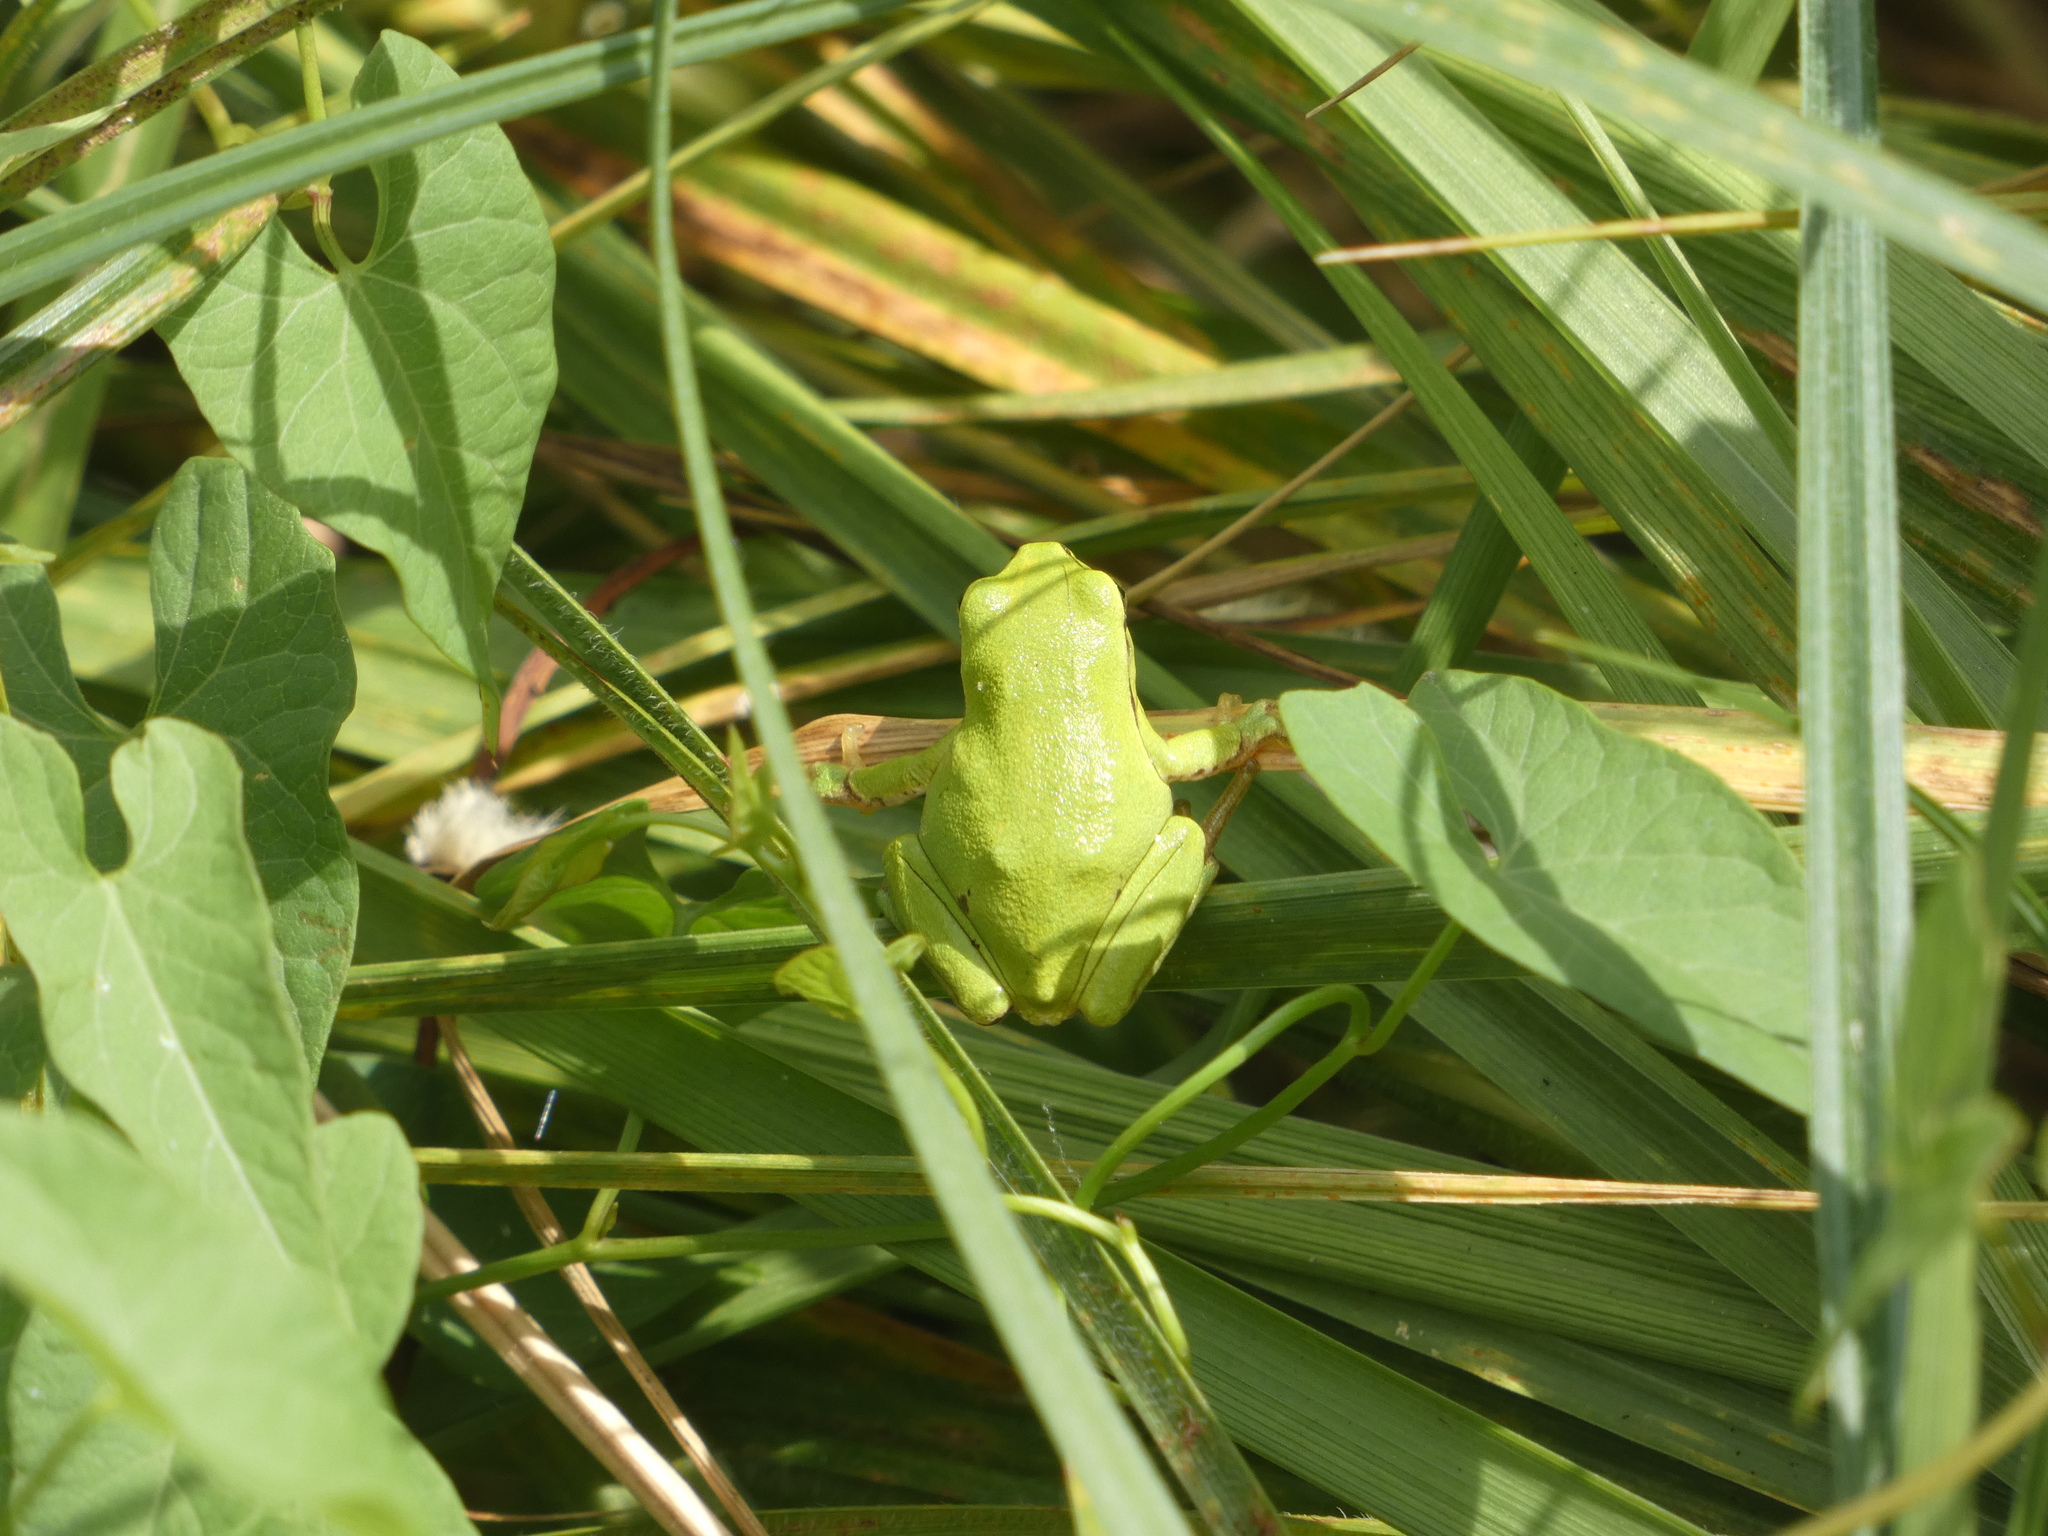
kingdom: Animalia
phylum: Chordata
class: Amphibia
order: Anura
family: Hylidae
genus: Hyla
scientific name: Hyla arborea
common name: Common tree frog
